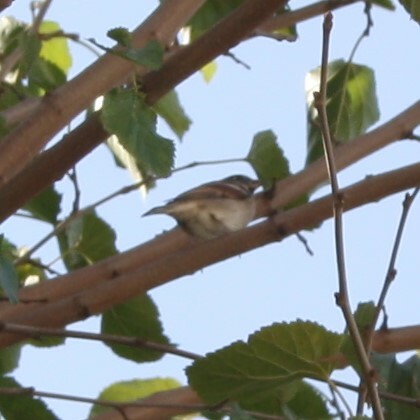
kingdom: Animalia
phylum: Chordata
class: Aves
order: Passeriformes
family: Passeridae
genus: Passer
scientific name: Passer domesticus
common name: House sparrow
